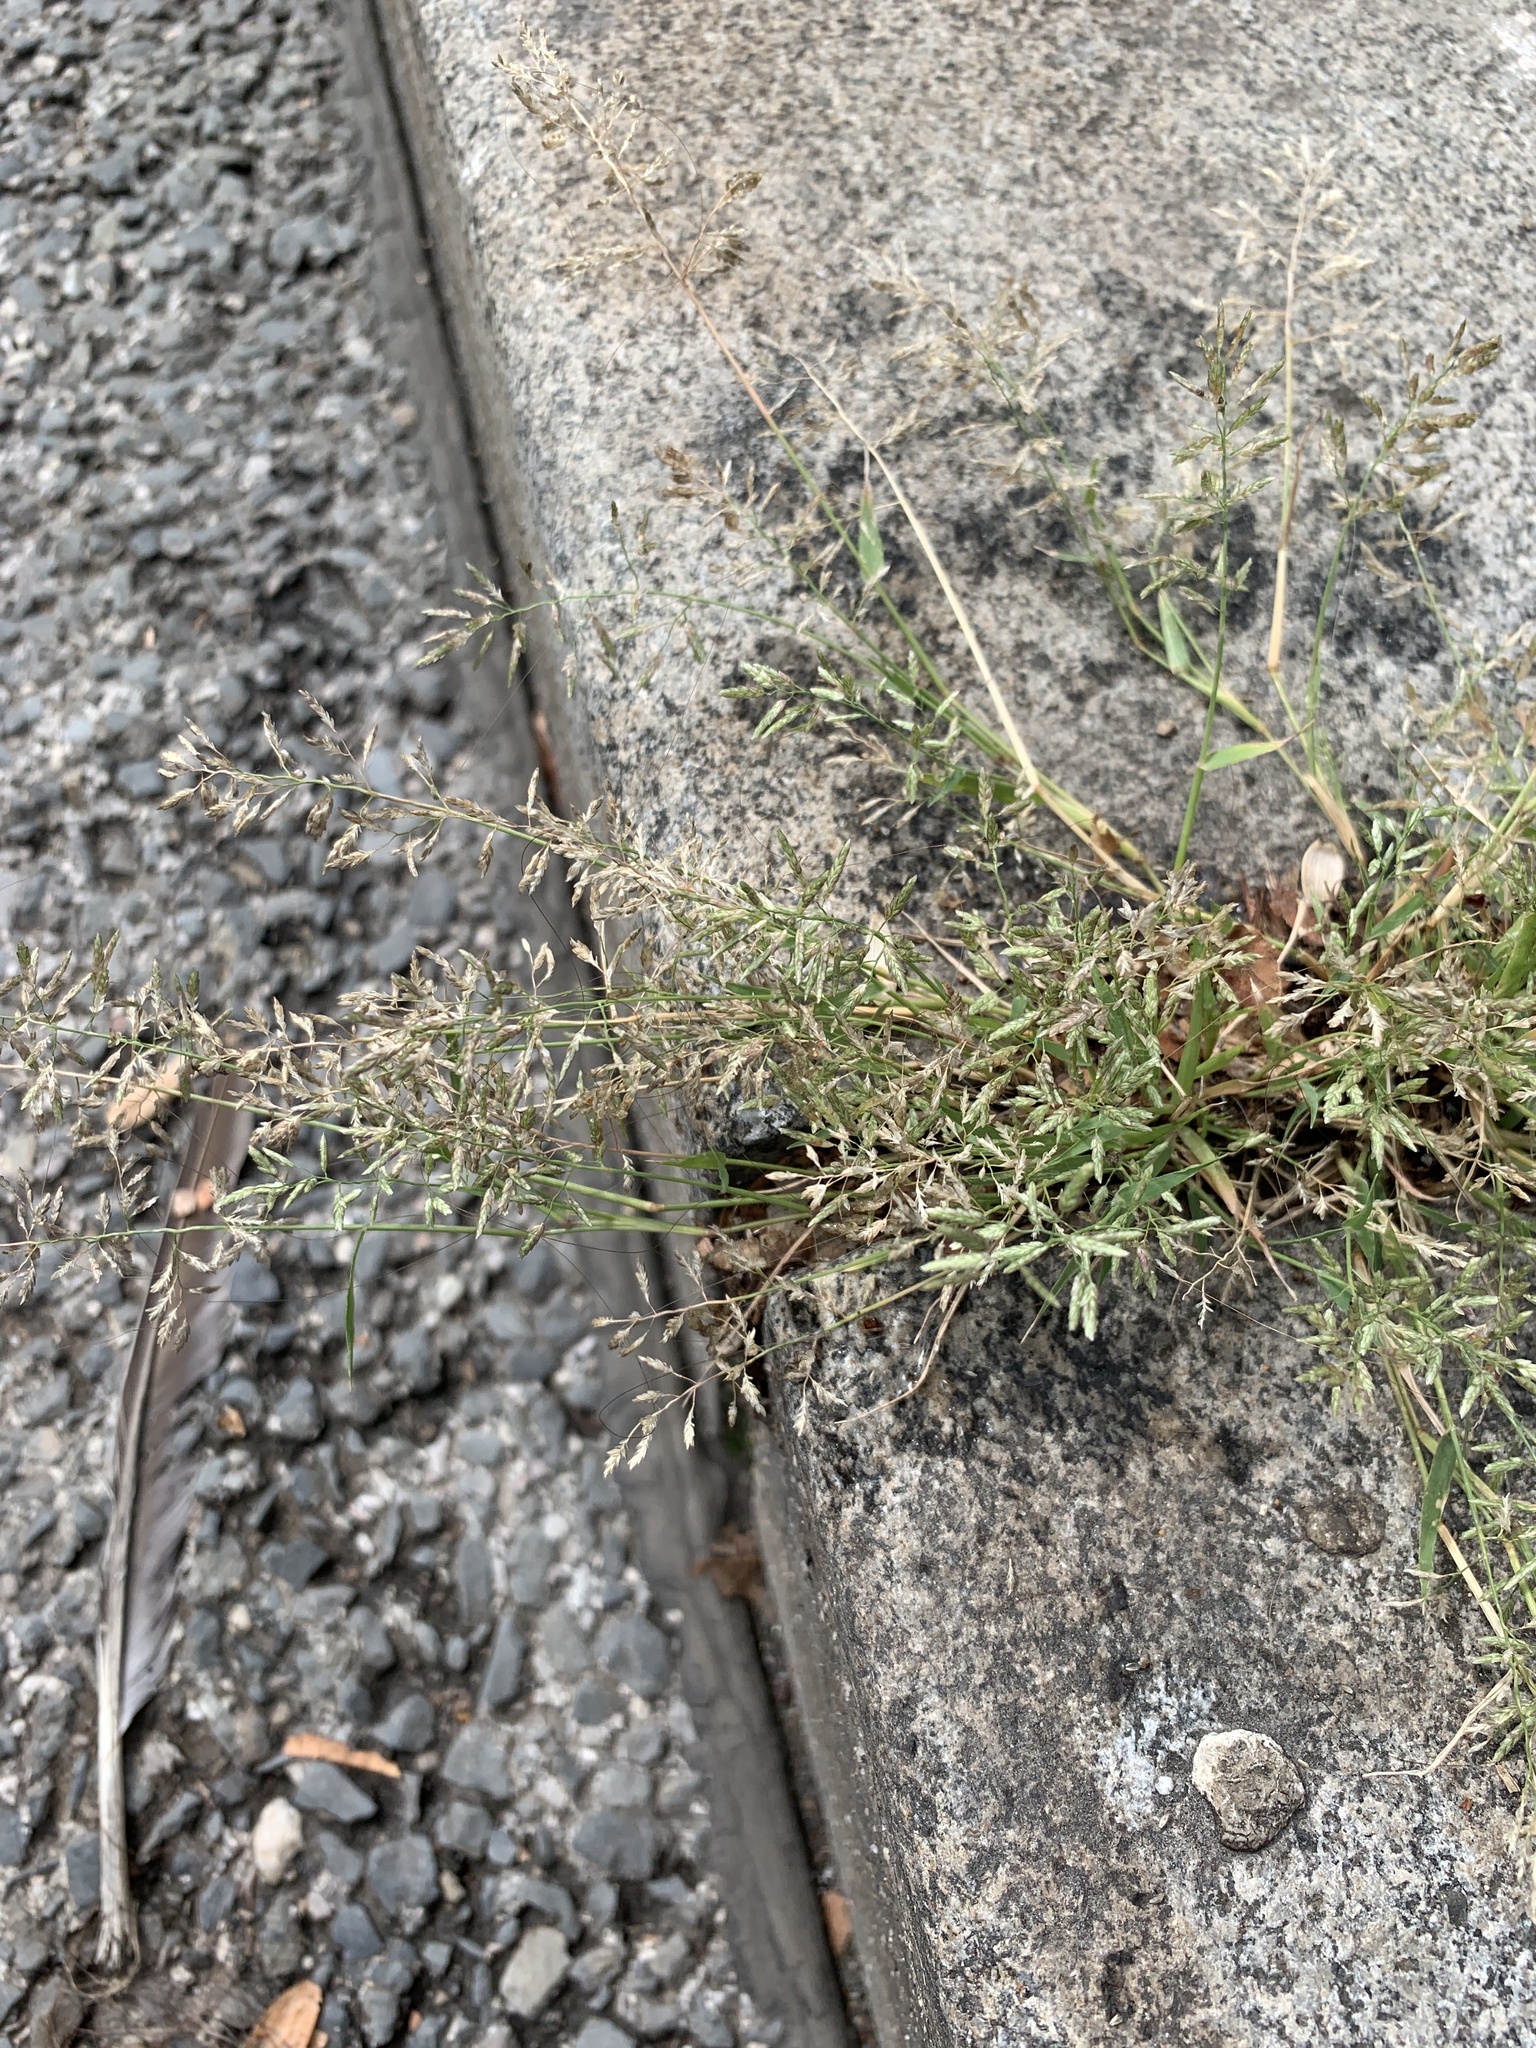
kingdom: Plantae
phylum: Tracheophyta
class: Liliopsida
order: Poales
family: Poaceae
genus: Eragrostis
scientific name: Eragrostis minor
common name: Small love-grass
